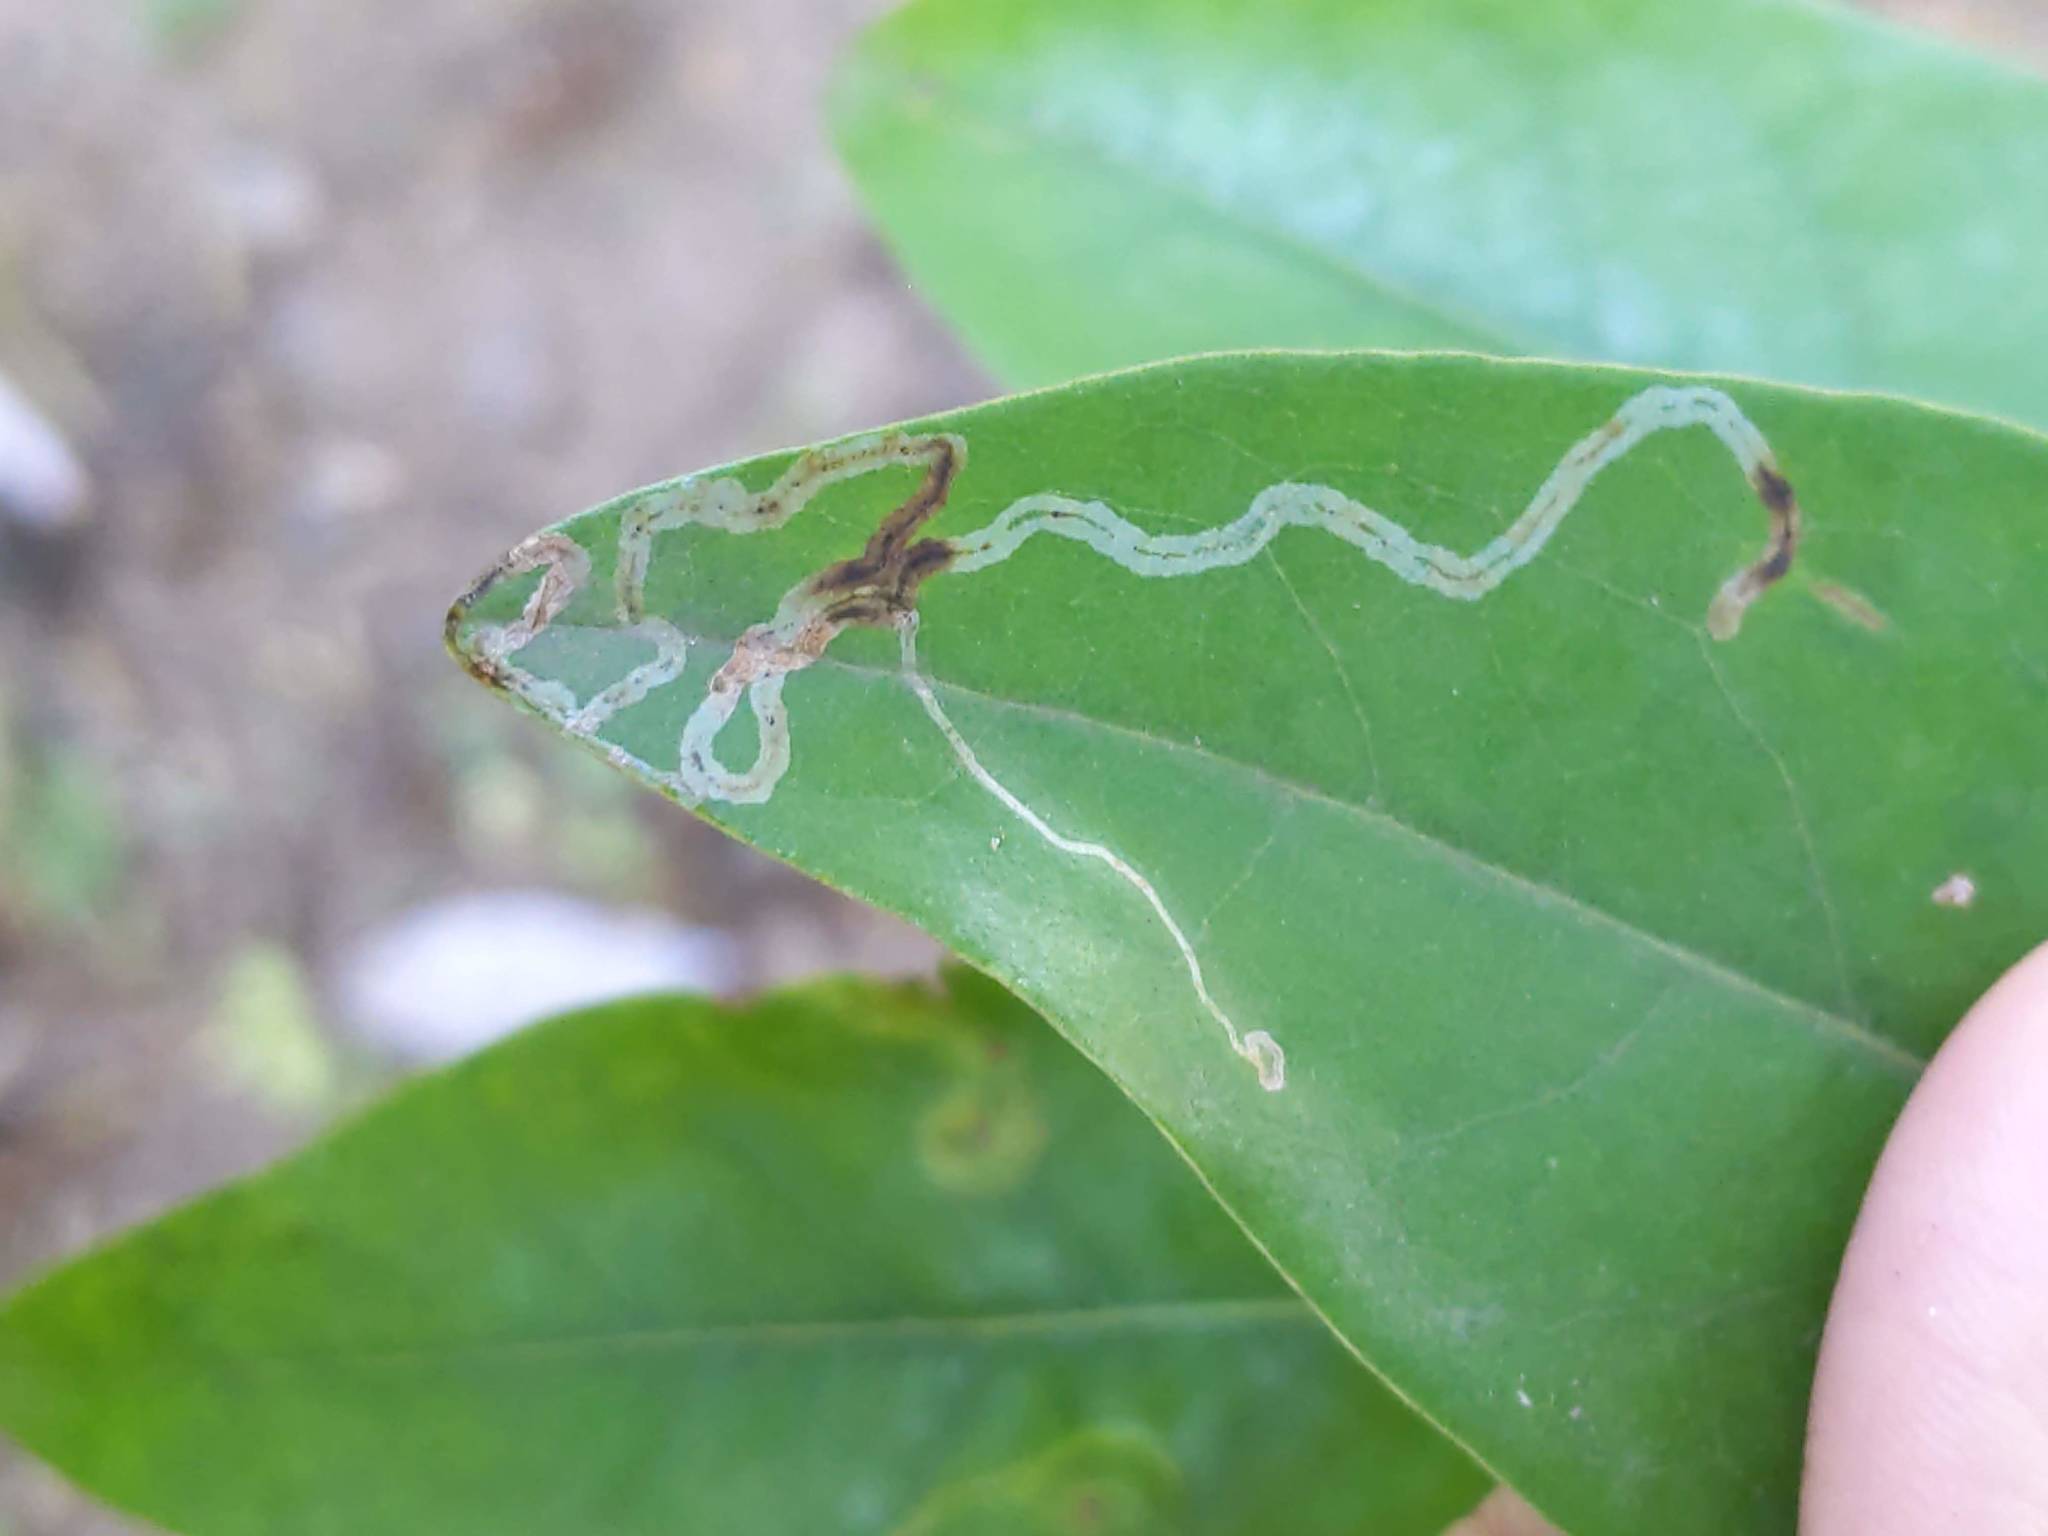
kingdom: Animalia
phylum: Arthropoda
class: Insecta
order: Lepidoptera
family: Gracillariidae
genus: Phyllocnistis
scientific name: Phyllocnistis liriodendronella
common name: Tulip tree leaf miner
